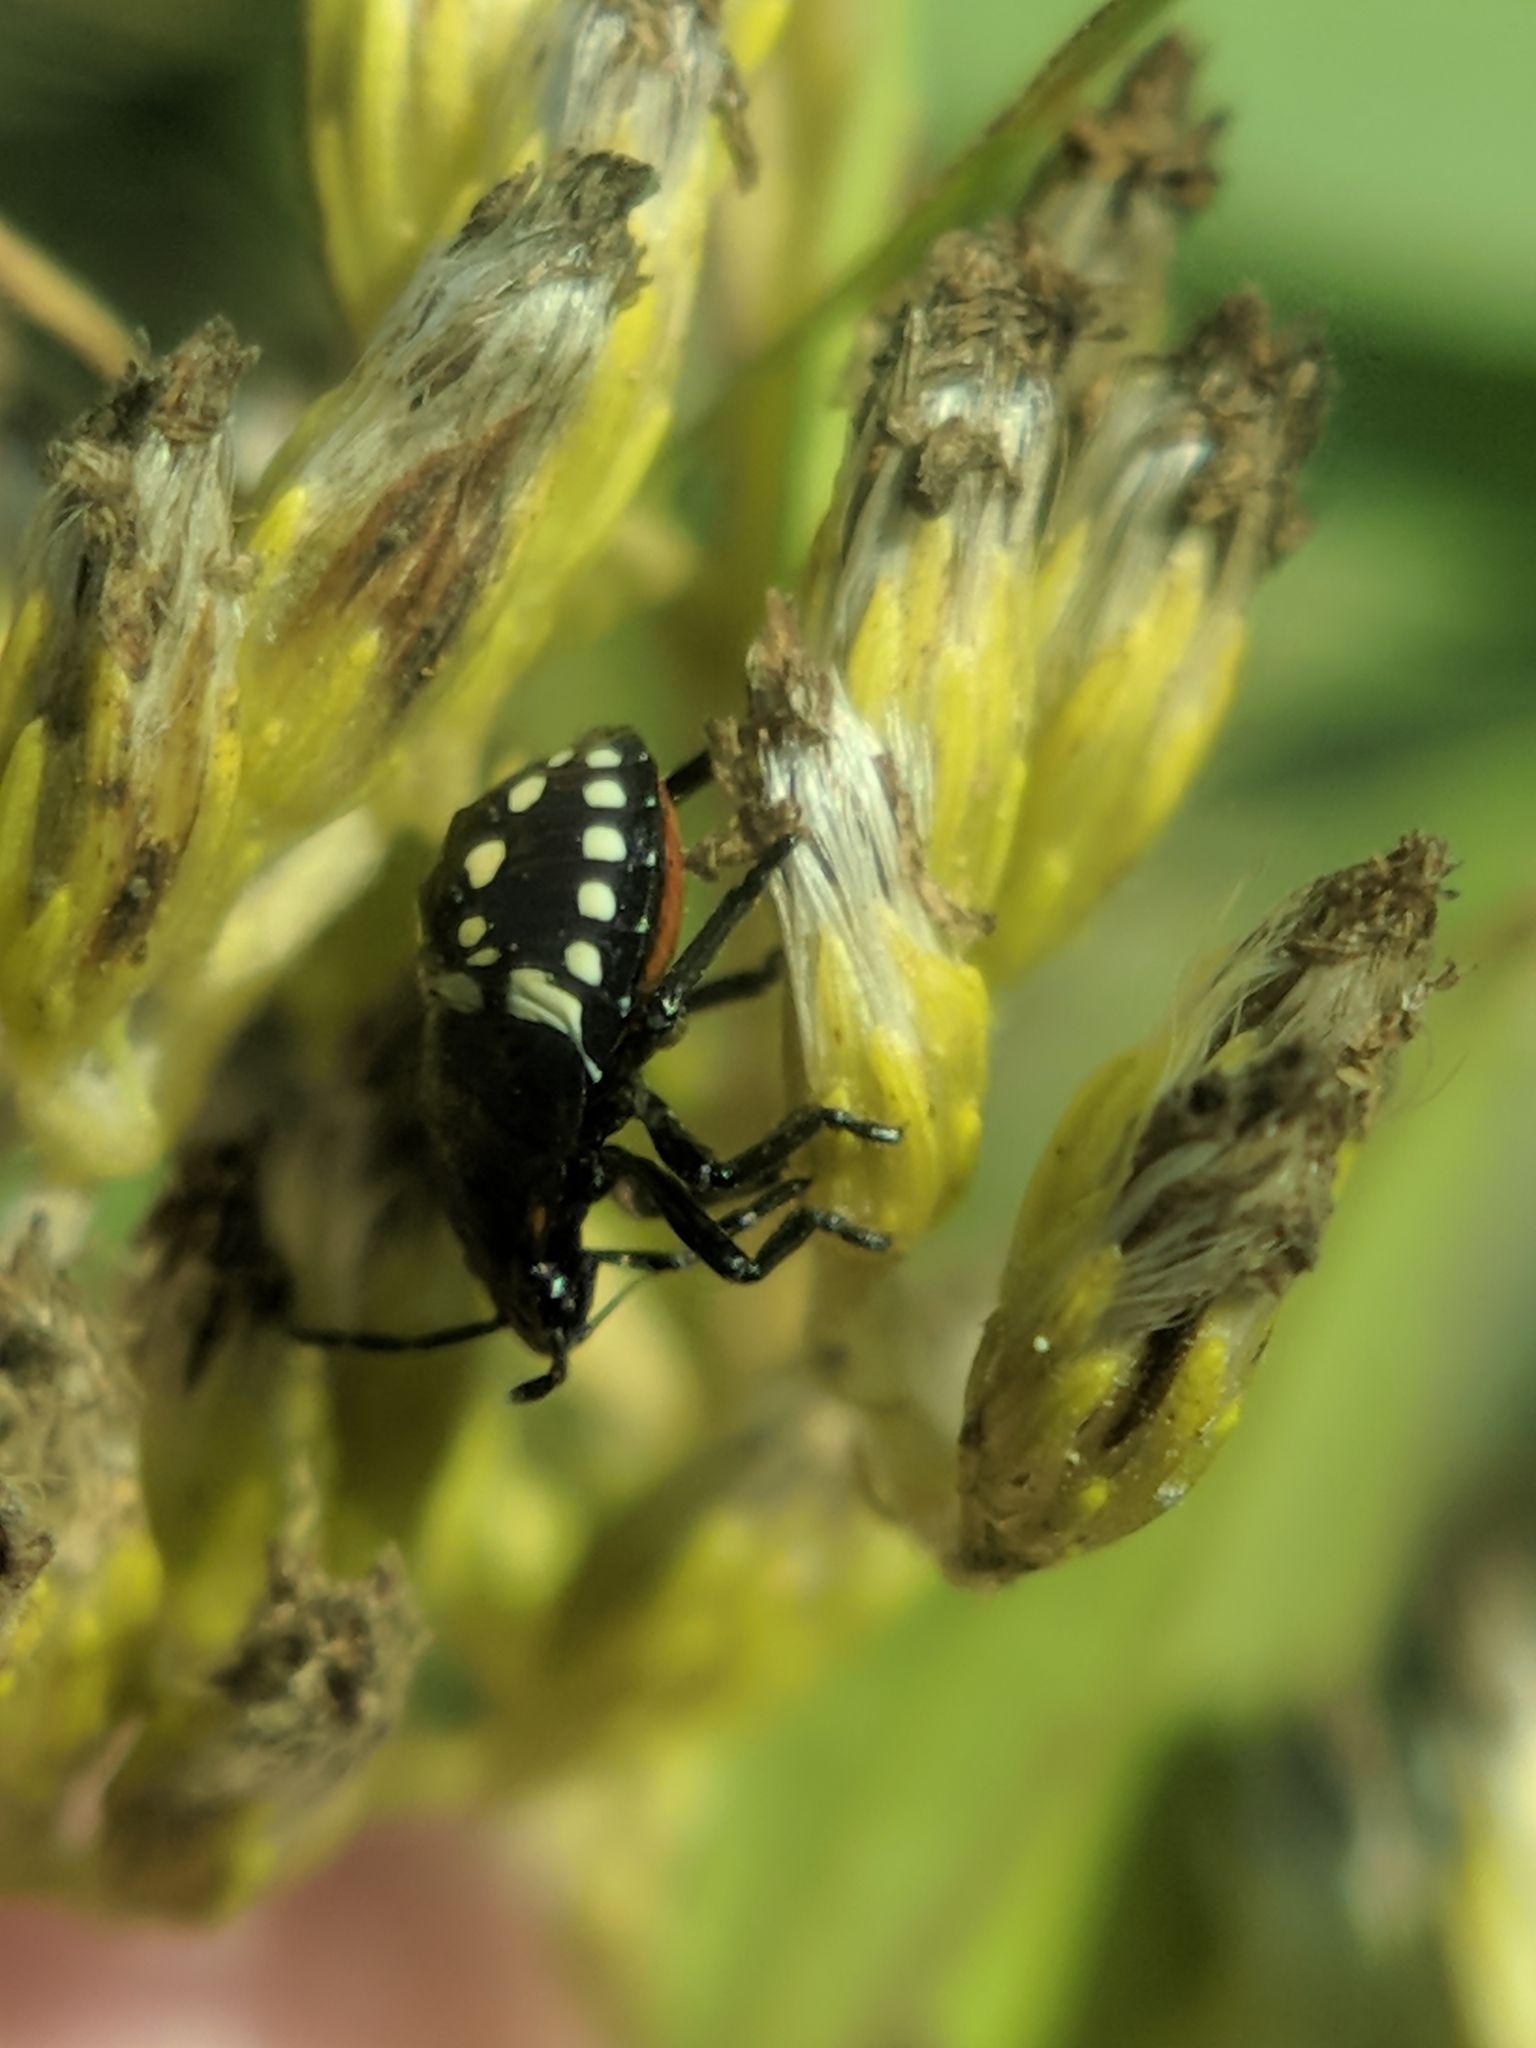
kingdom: Animalia
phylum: Arthropoda
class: Insecta
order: Hemiptera
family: Pentatomidae
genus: Nezara
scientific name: Nezara viridula
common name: Southern green stink bug
